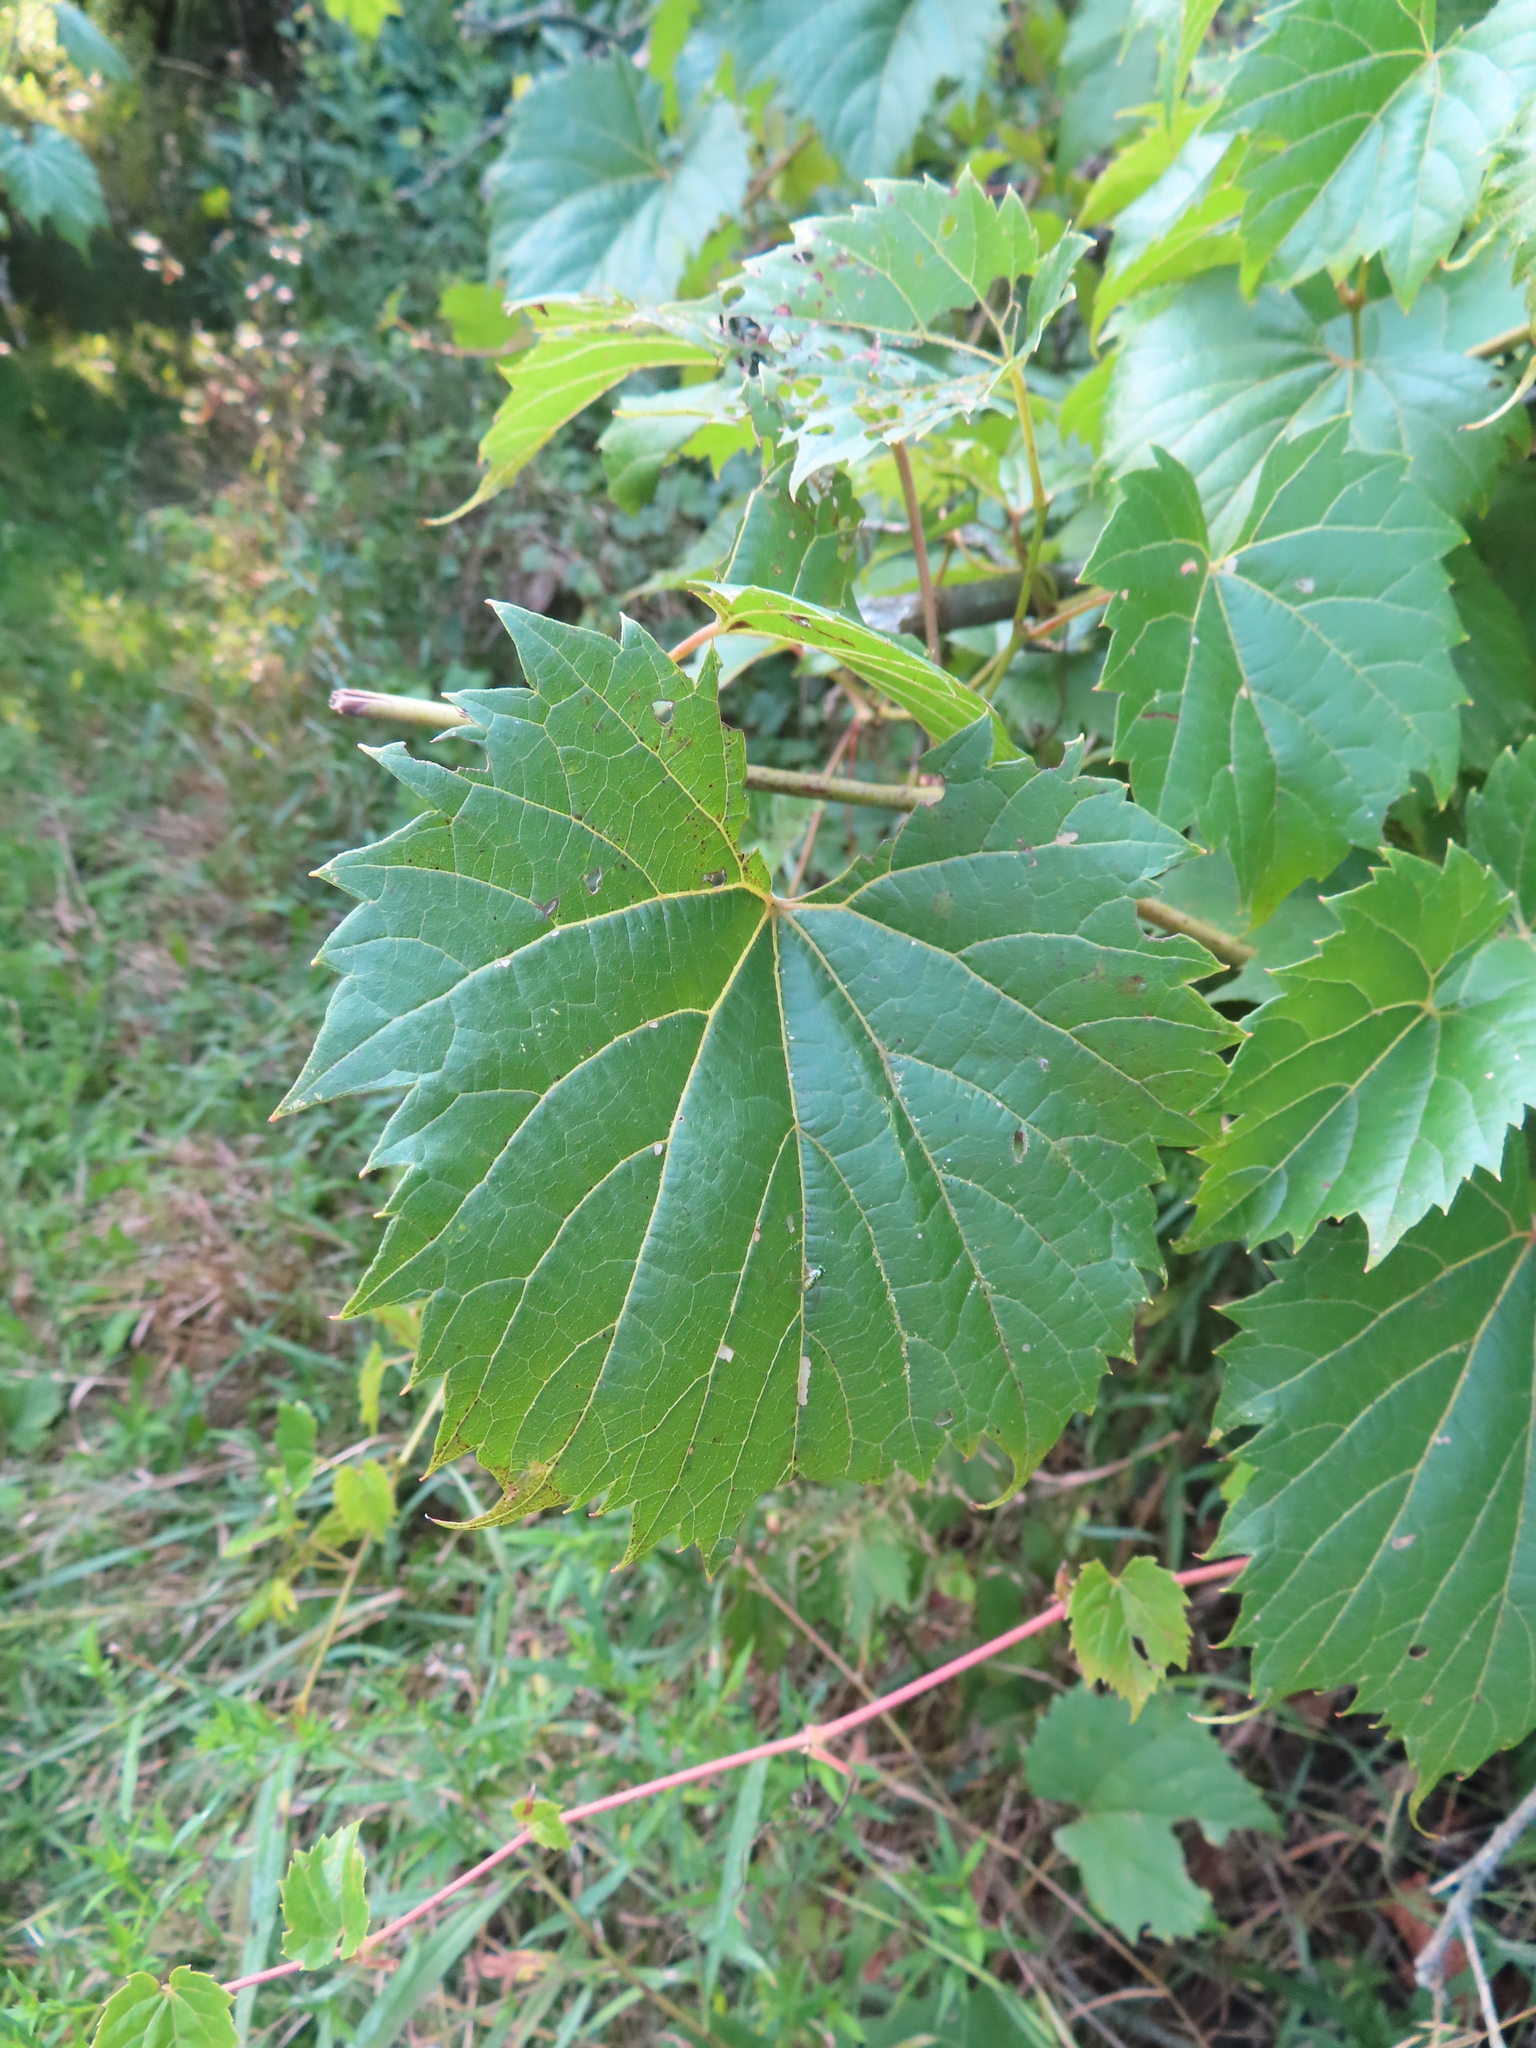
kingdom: Plantae
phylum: Tracheophyta
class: Magnoliopsida
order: Vitales
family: Vitaceae
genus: Vitis
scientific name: Vitis riparia
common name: Frost grape
